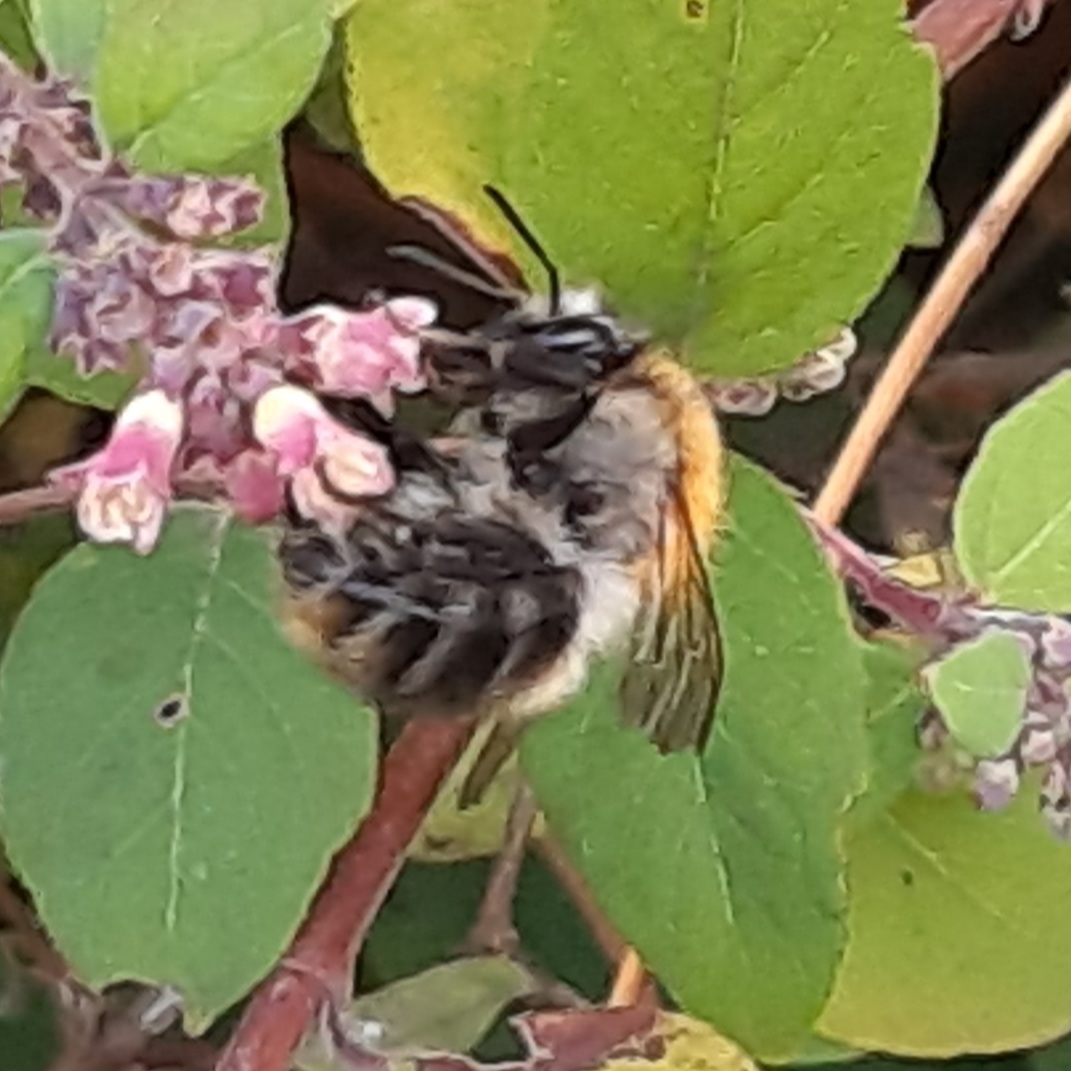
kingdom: Animalia
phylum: Arthropoda
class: Insecta
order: Hymenoptera
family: Apidae
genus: Bombus
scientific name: Bombus pascuorum
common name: Common carder bee
